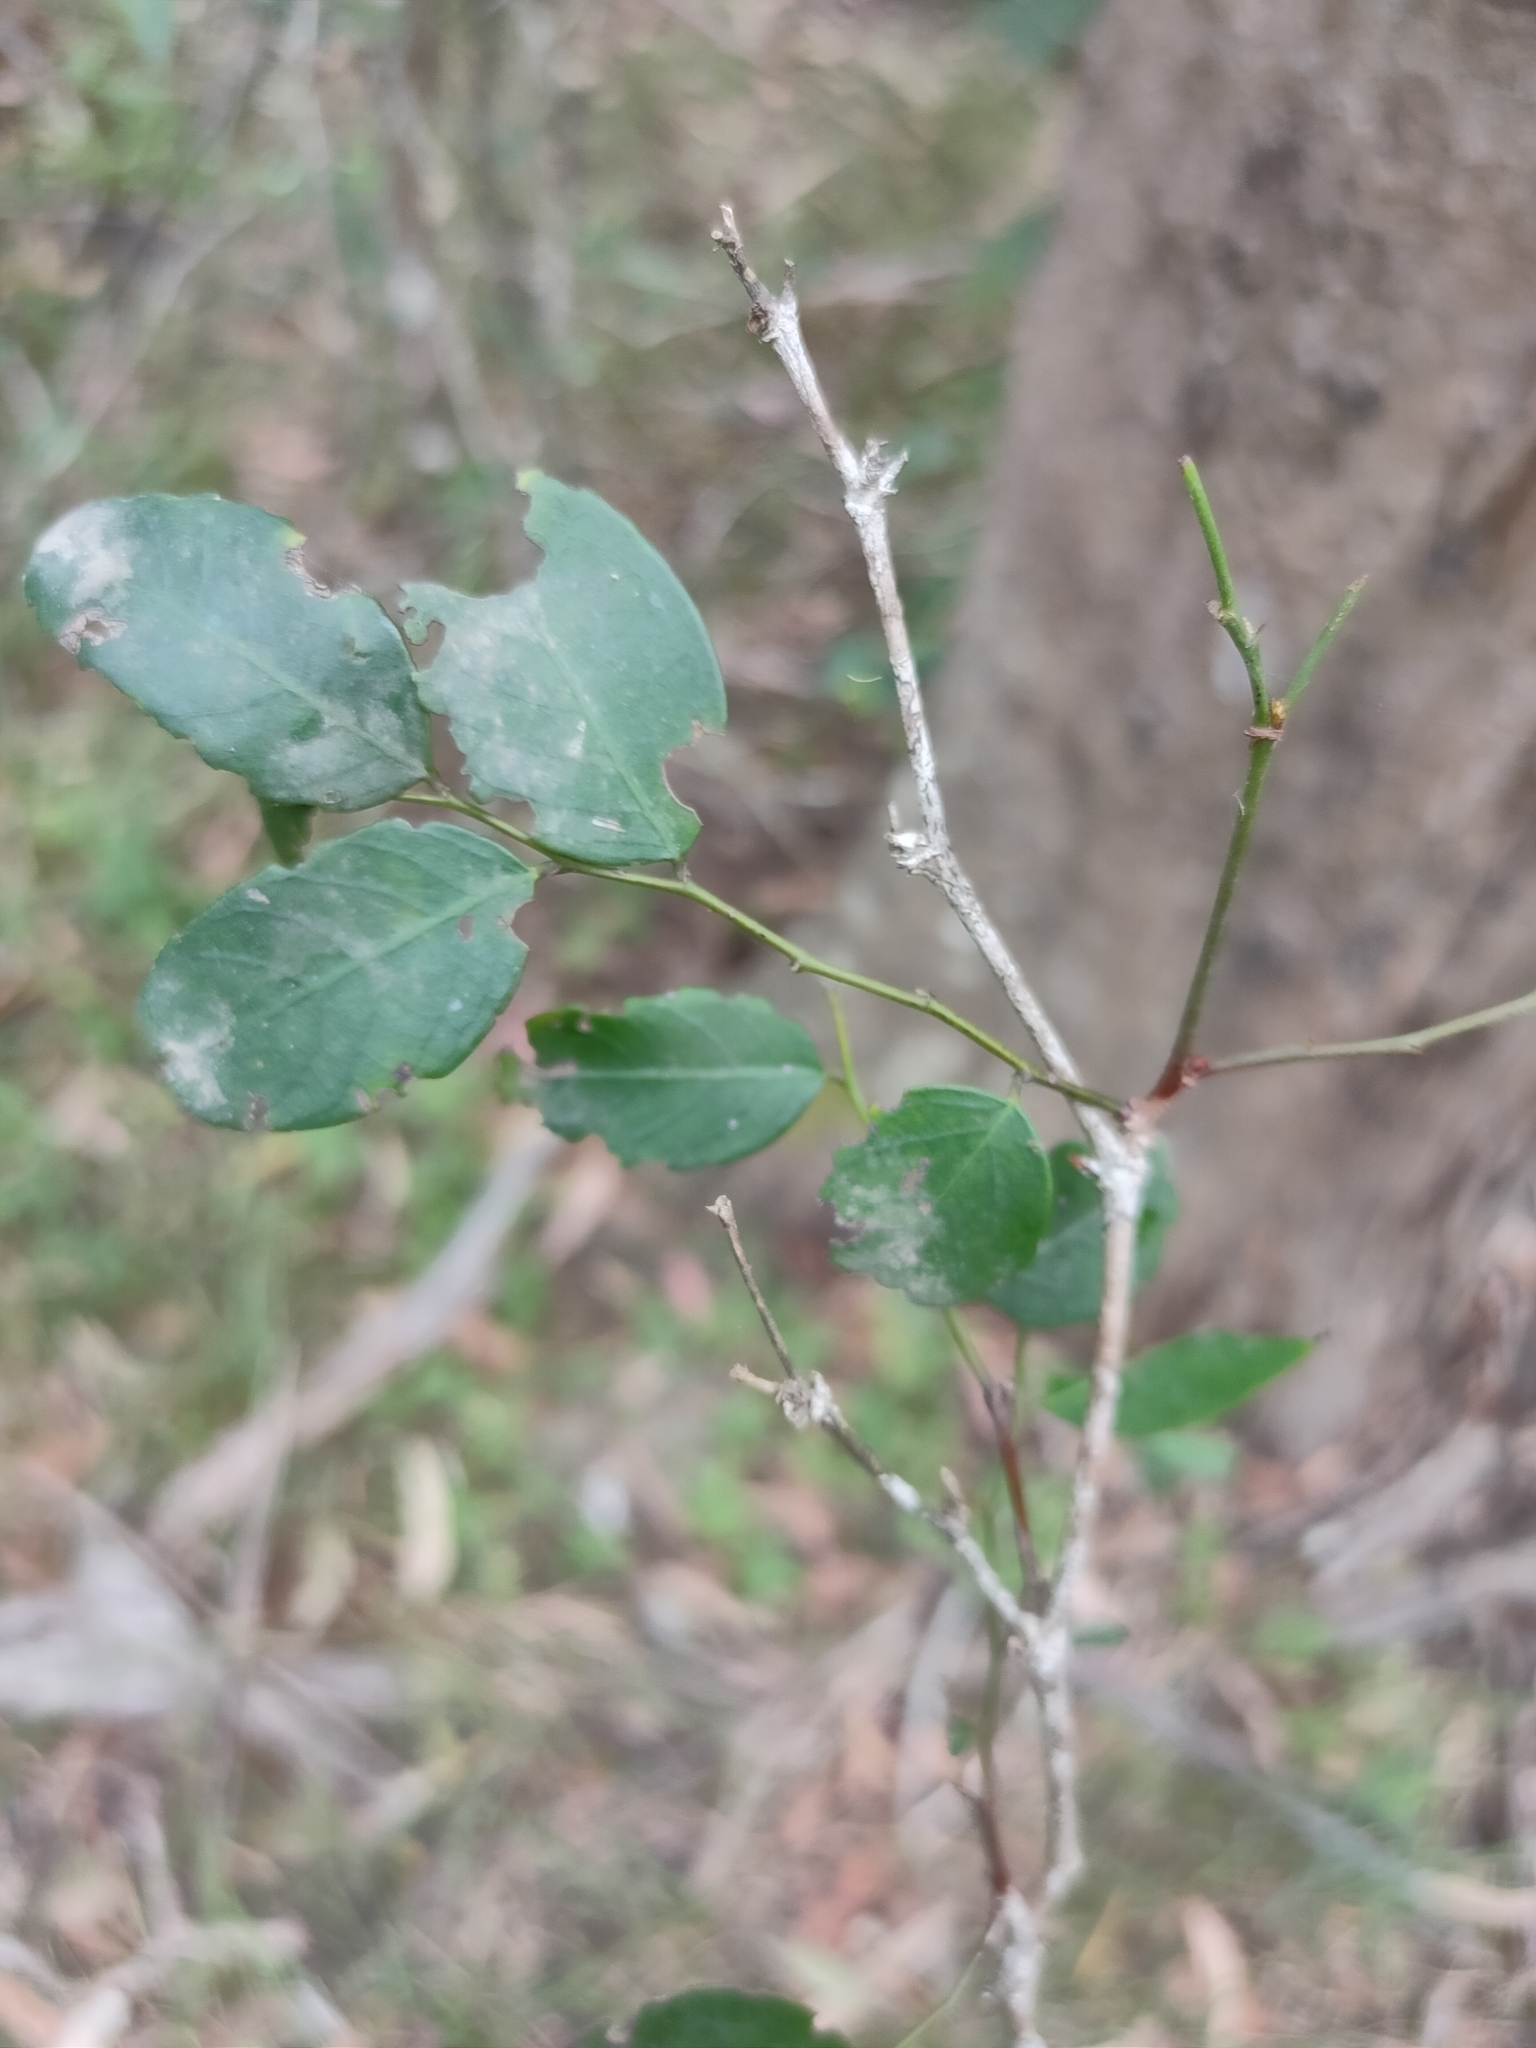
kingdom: Plantae
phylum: Tracheophyta
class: Magnoliopsida
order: Malpighiales
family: Phyllanthaceae
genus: Breynia
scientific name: Breynia oblongifolia
